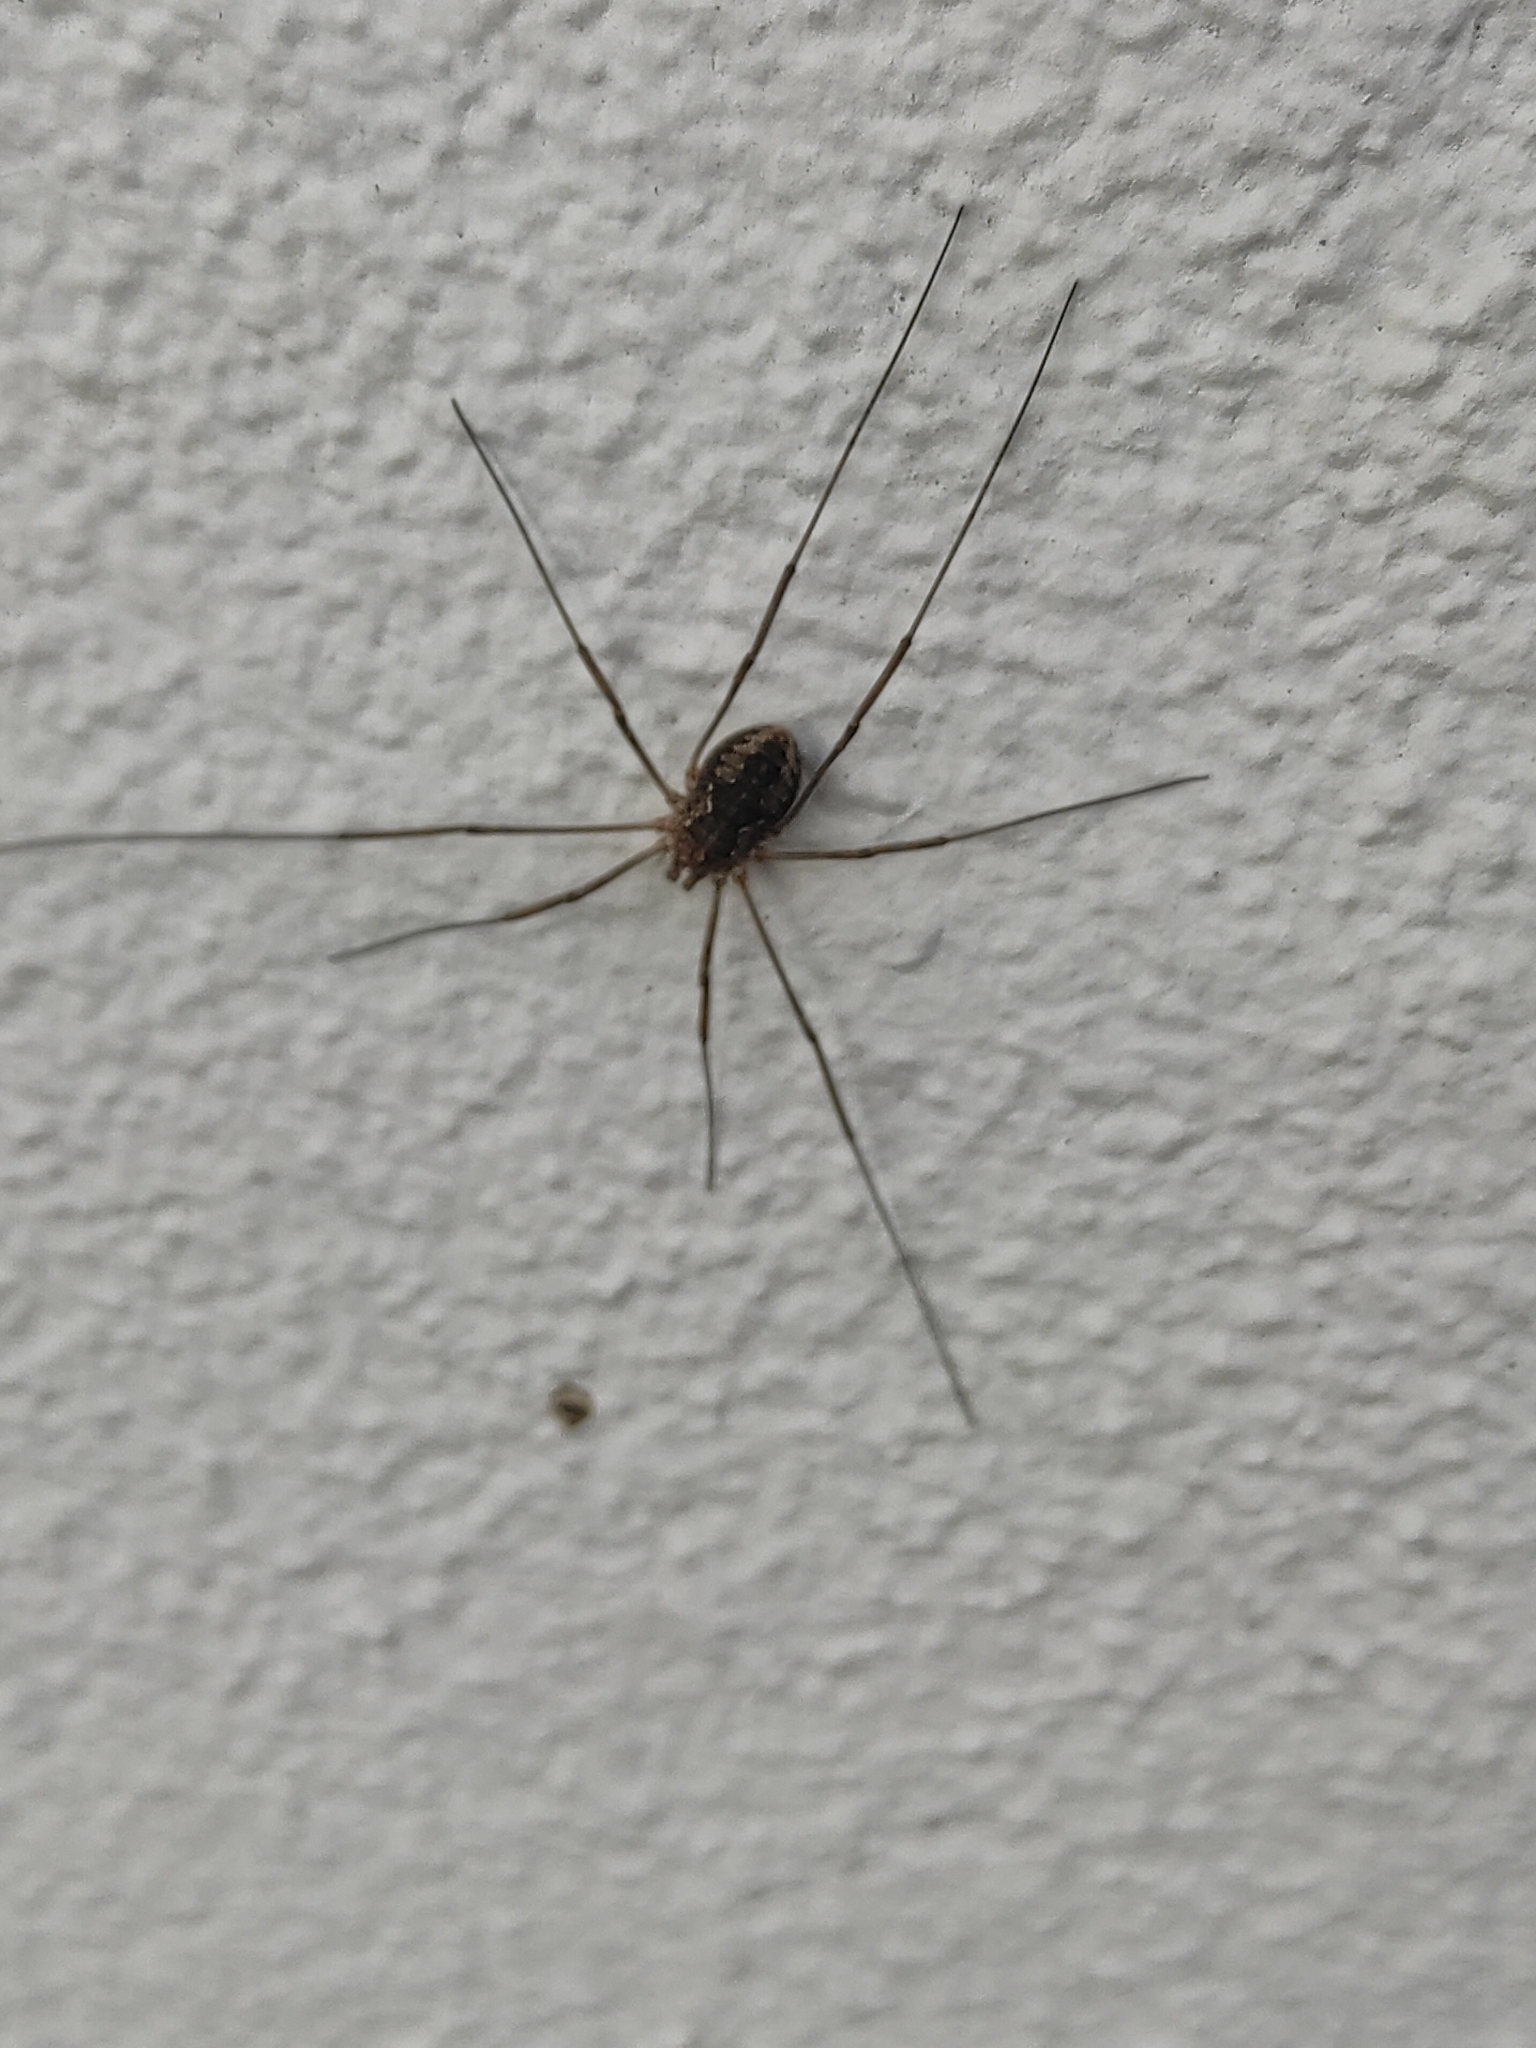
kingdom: Animalia
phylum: Arthropoda
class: Arachnida
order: Opiliones
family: Phalangiidae
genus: Phalangium
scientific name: Phalangium opilio
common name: Daddy longleg
